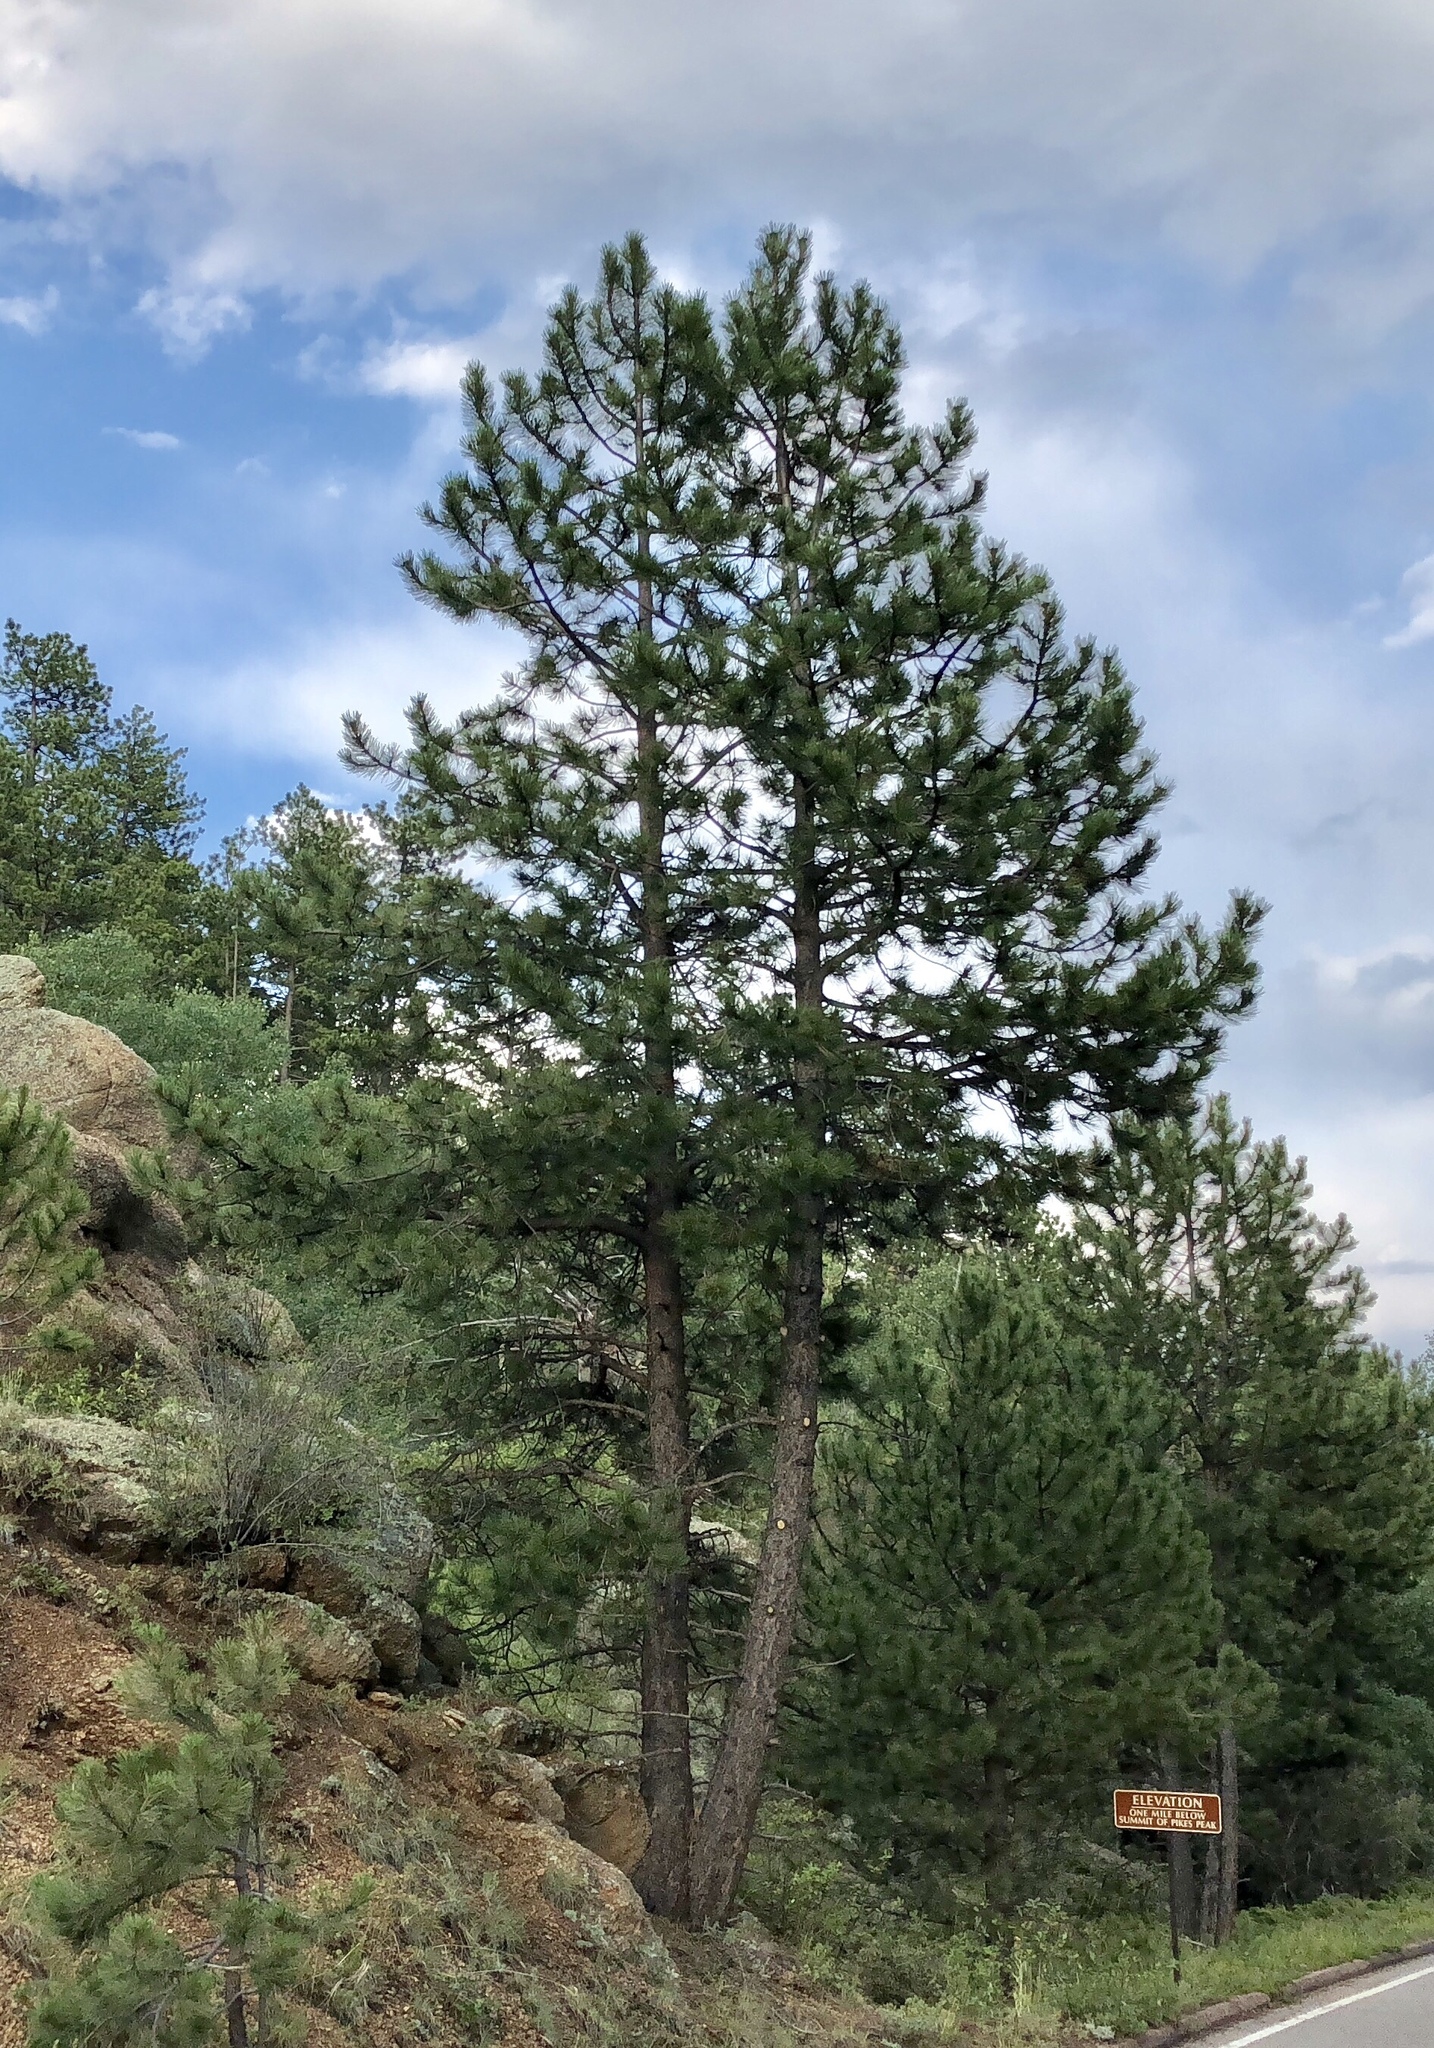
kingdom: Plantae
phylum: Tracheophyta
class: Pinopsida
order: Pinales
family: Pinaceae
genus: Pinus
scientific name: Pinus ponderosa
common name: Western yellow-pine
